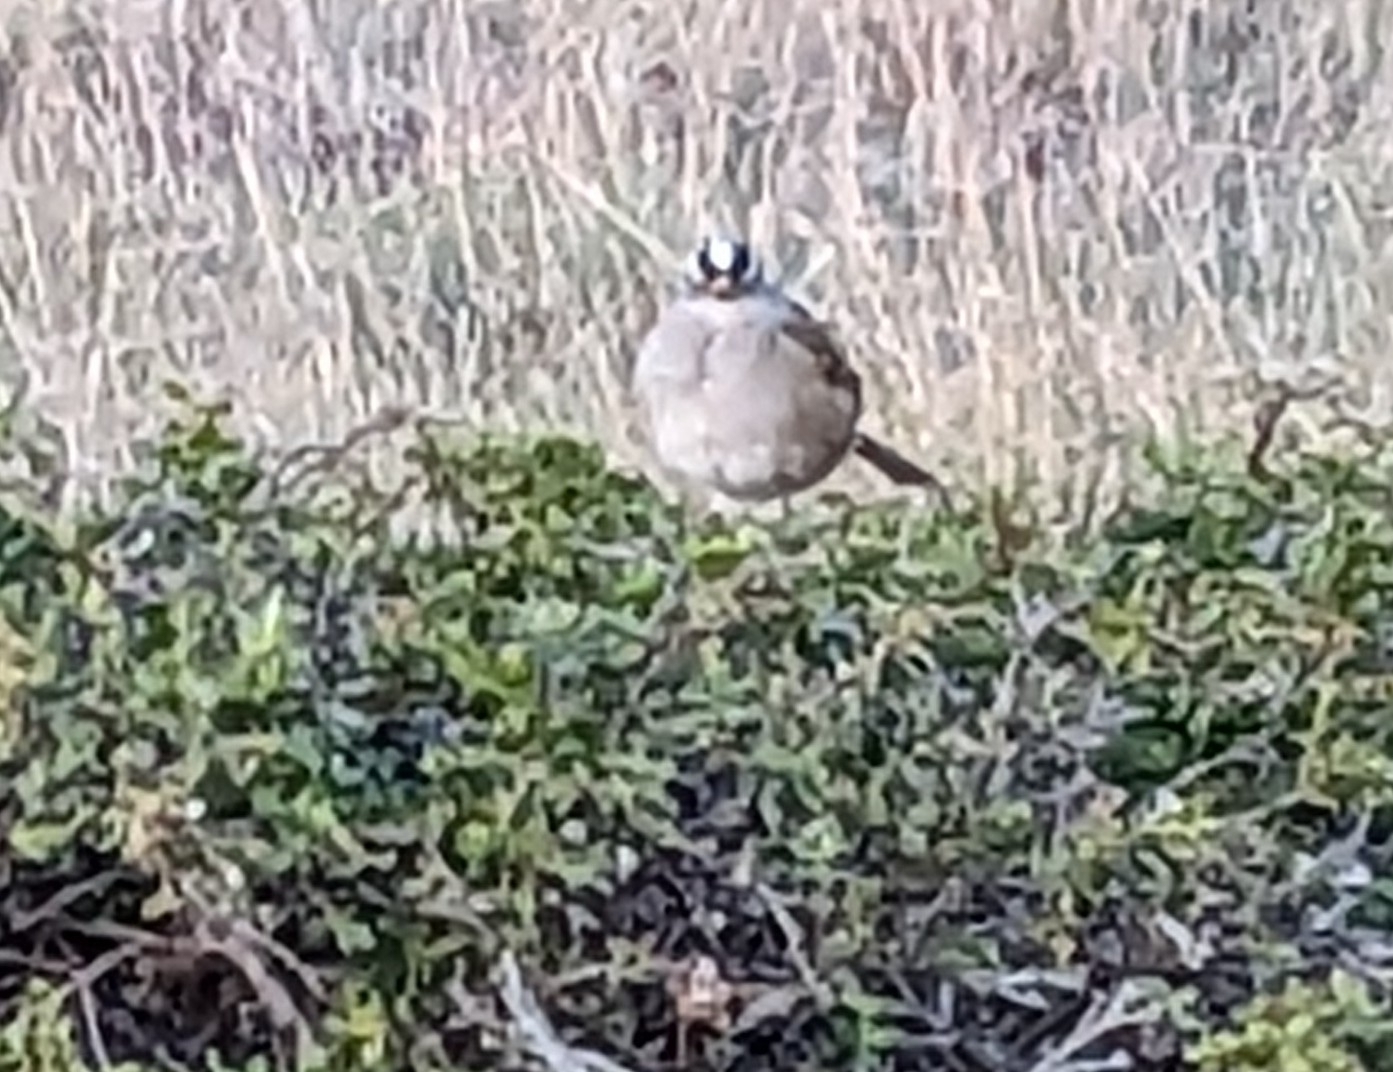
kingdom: Animalia
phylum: Chordata
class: Aves
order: Passeriformes
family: Passerellidae
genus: Zonotrichia
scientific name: Zonotrichia leucophrys
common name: White-crowned sparrow
